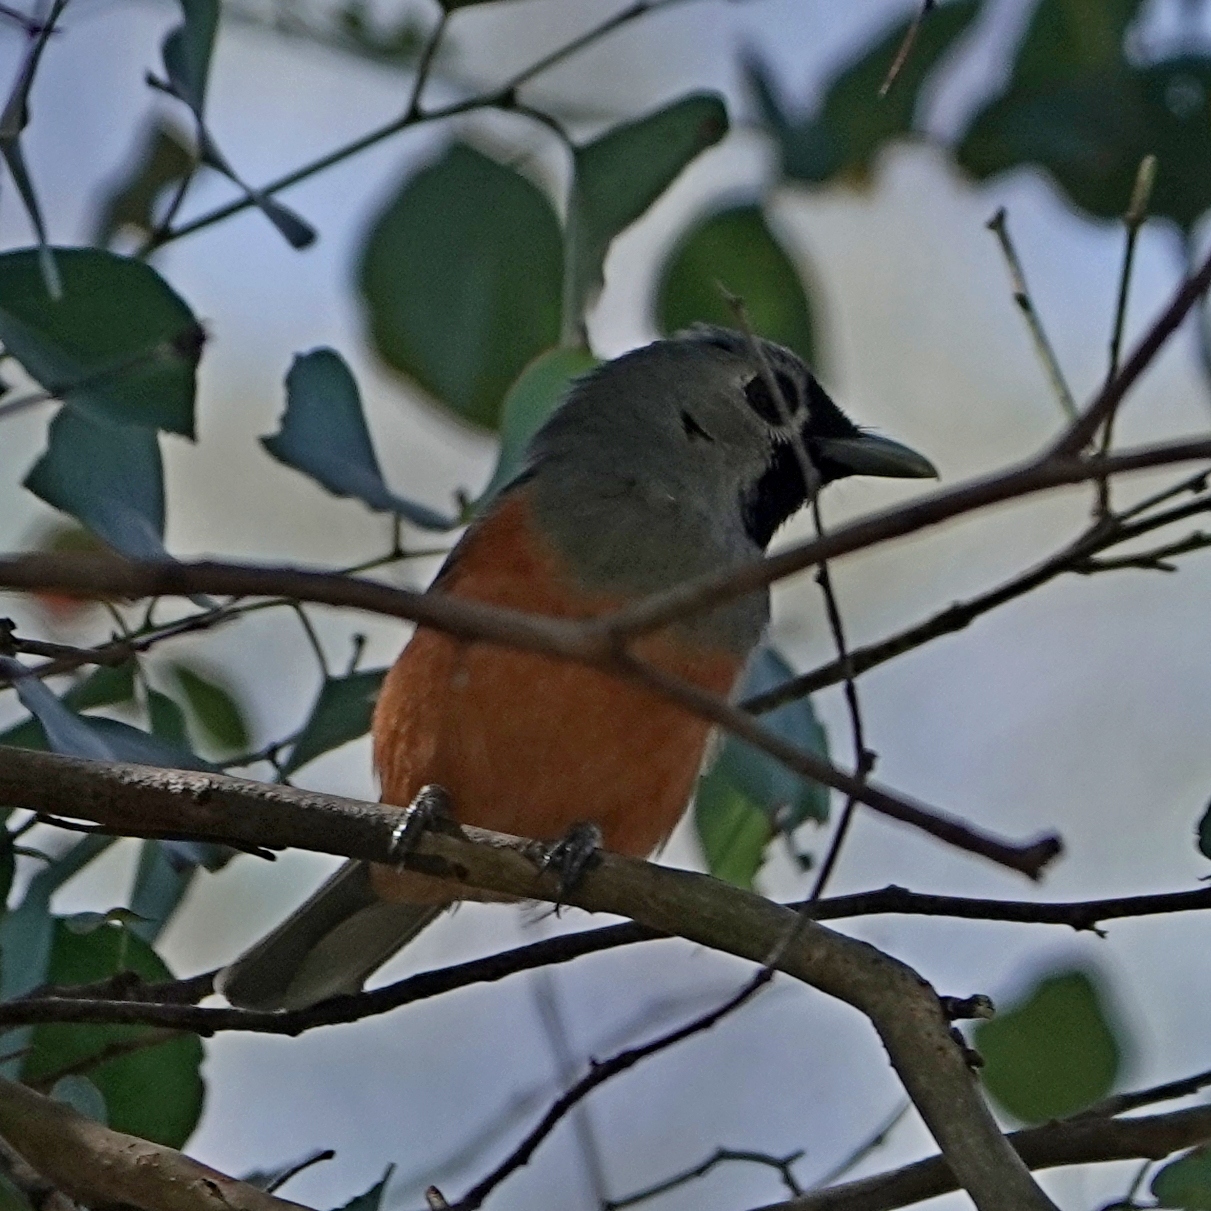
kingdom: Animalia
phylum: Chordata
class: Aves
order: Passeriformes
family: Monarchidae
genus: Monarcha
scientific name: Monarcha melanopsis
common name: Black-faced monarch
